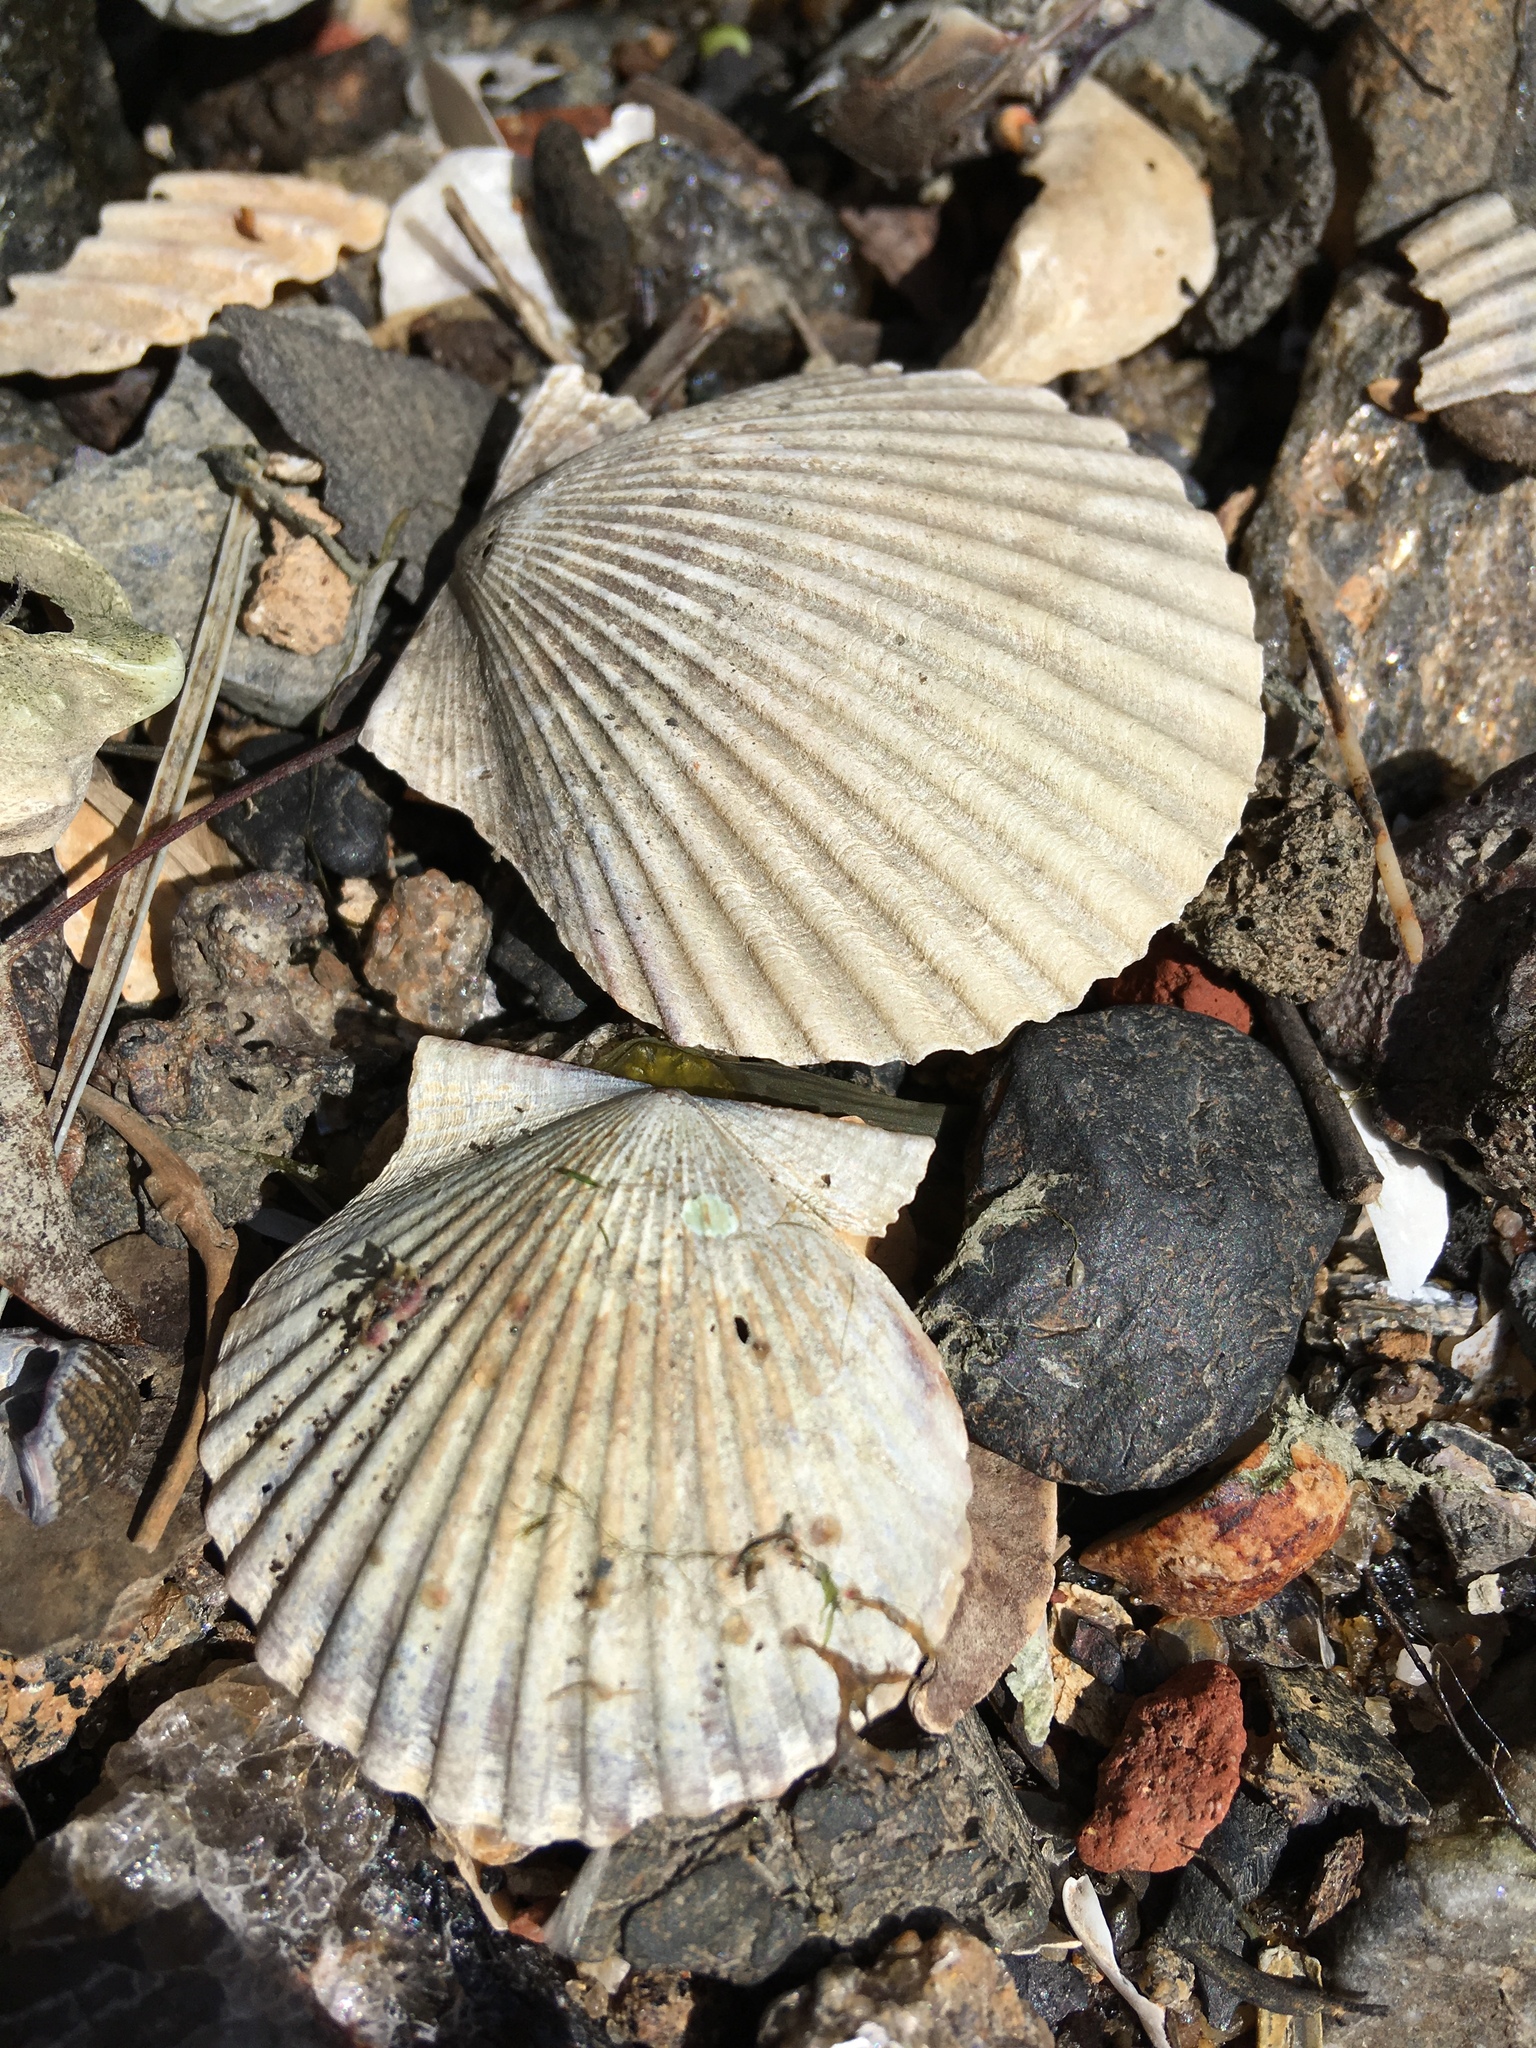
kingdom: Animalia
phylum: Mollusca
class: Bivalvia
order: Pectinida
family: Pectinidae
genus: Argopecten
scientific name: Argopecten irradians
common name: Atlantic bay scallop
